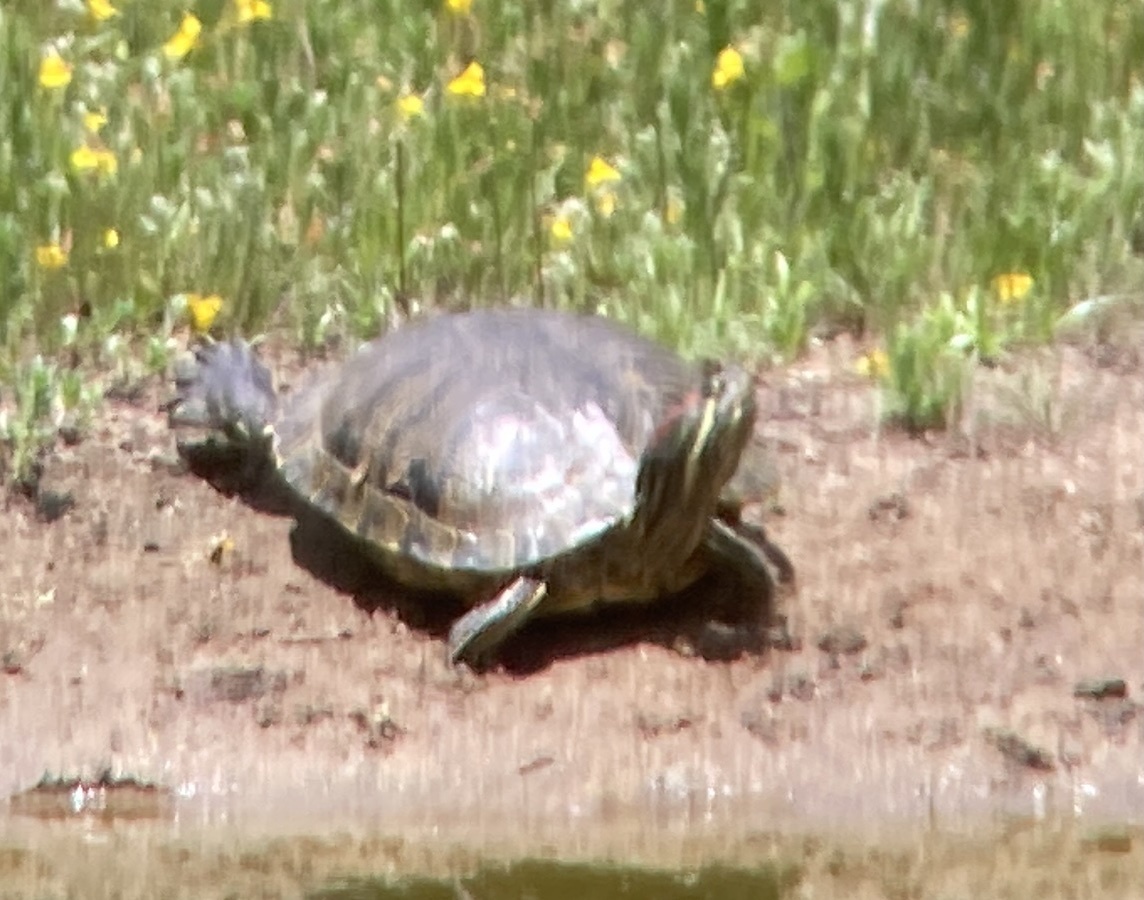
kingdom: Animalia
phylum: Chordata
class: Testudines
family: Emydidae
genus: Trachemys
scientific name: Trachemys scripta
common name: Slider
